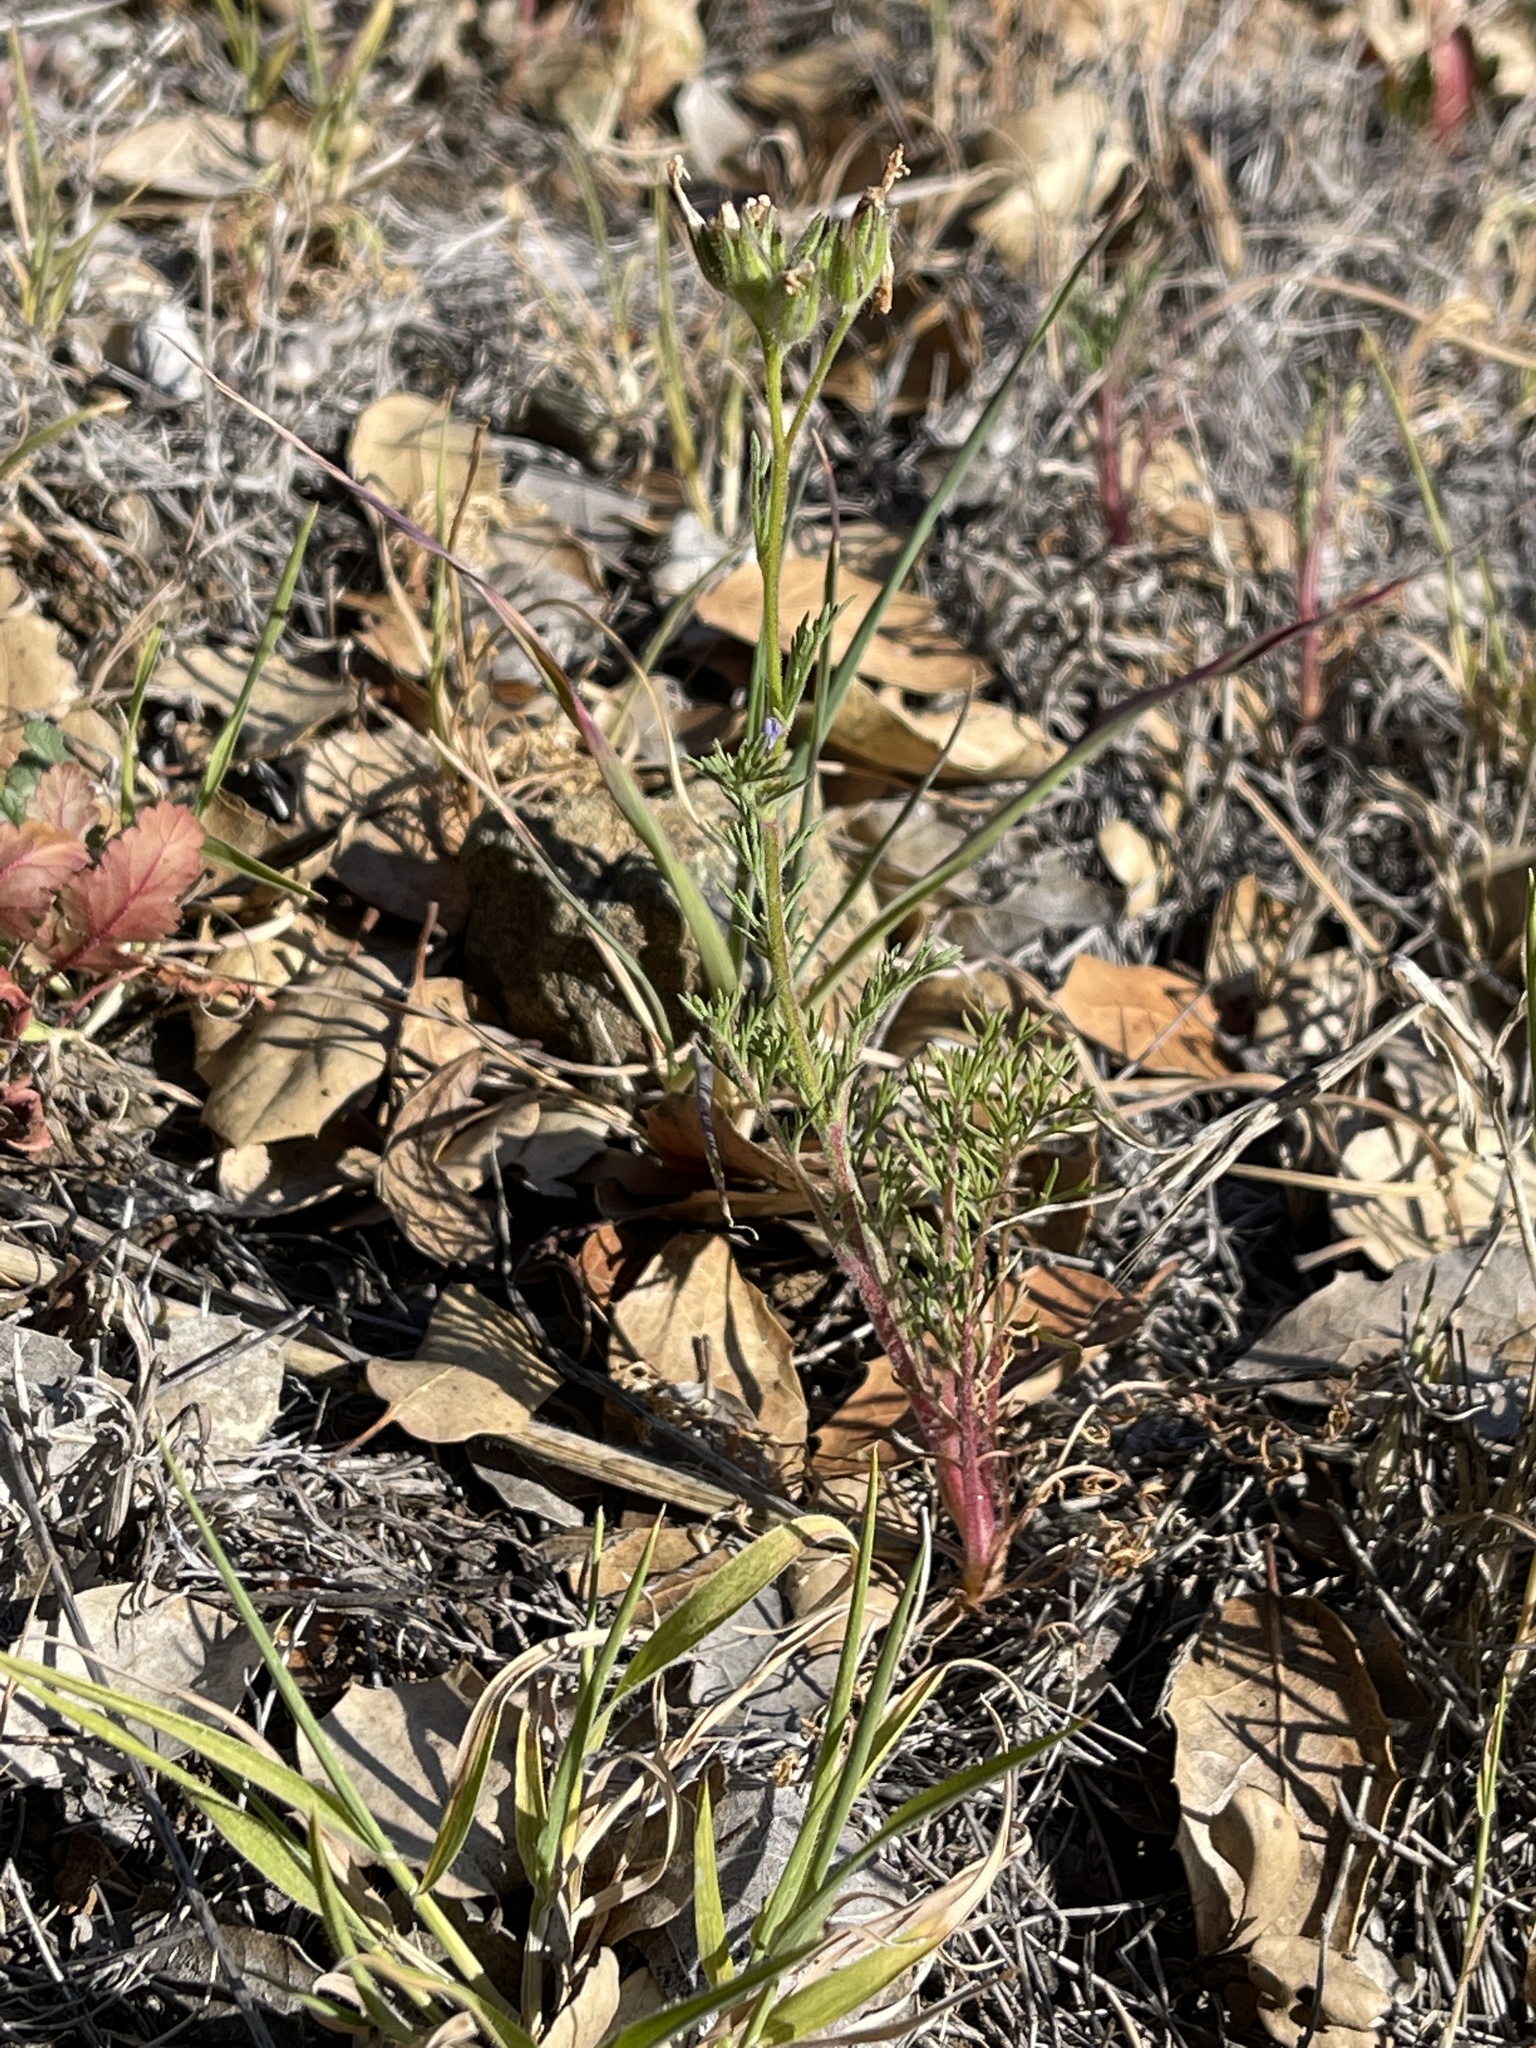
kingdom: Plantae
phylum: Tracheophyta
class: Magnoliopsida
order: Ericales
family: Polemoniaceae
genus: Gilia
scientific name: Gilia clivorum
